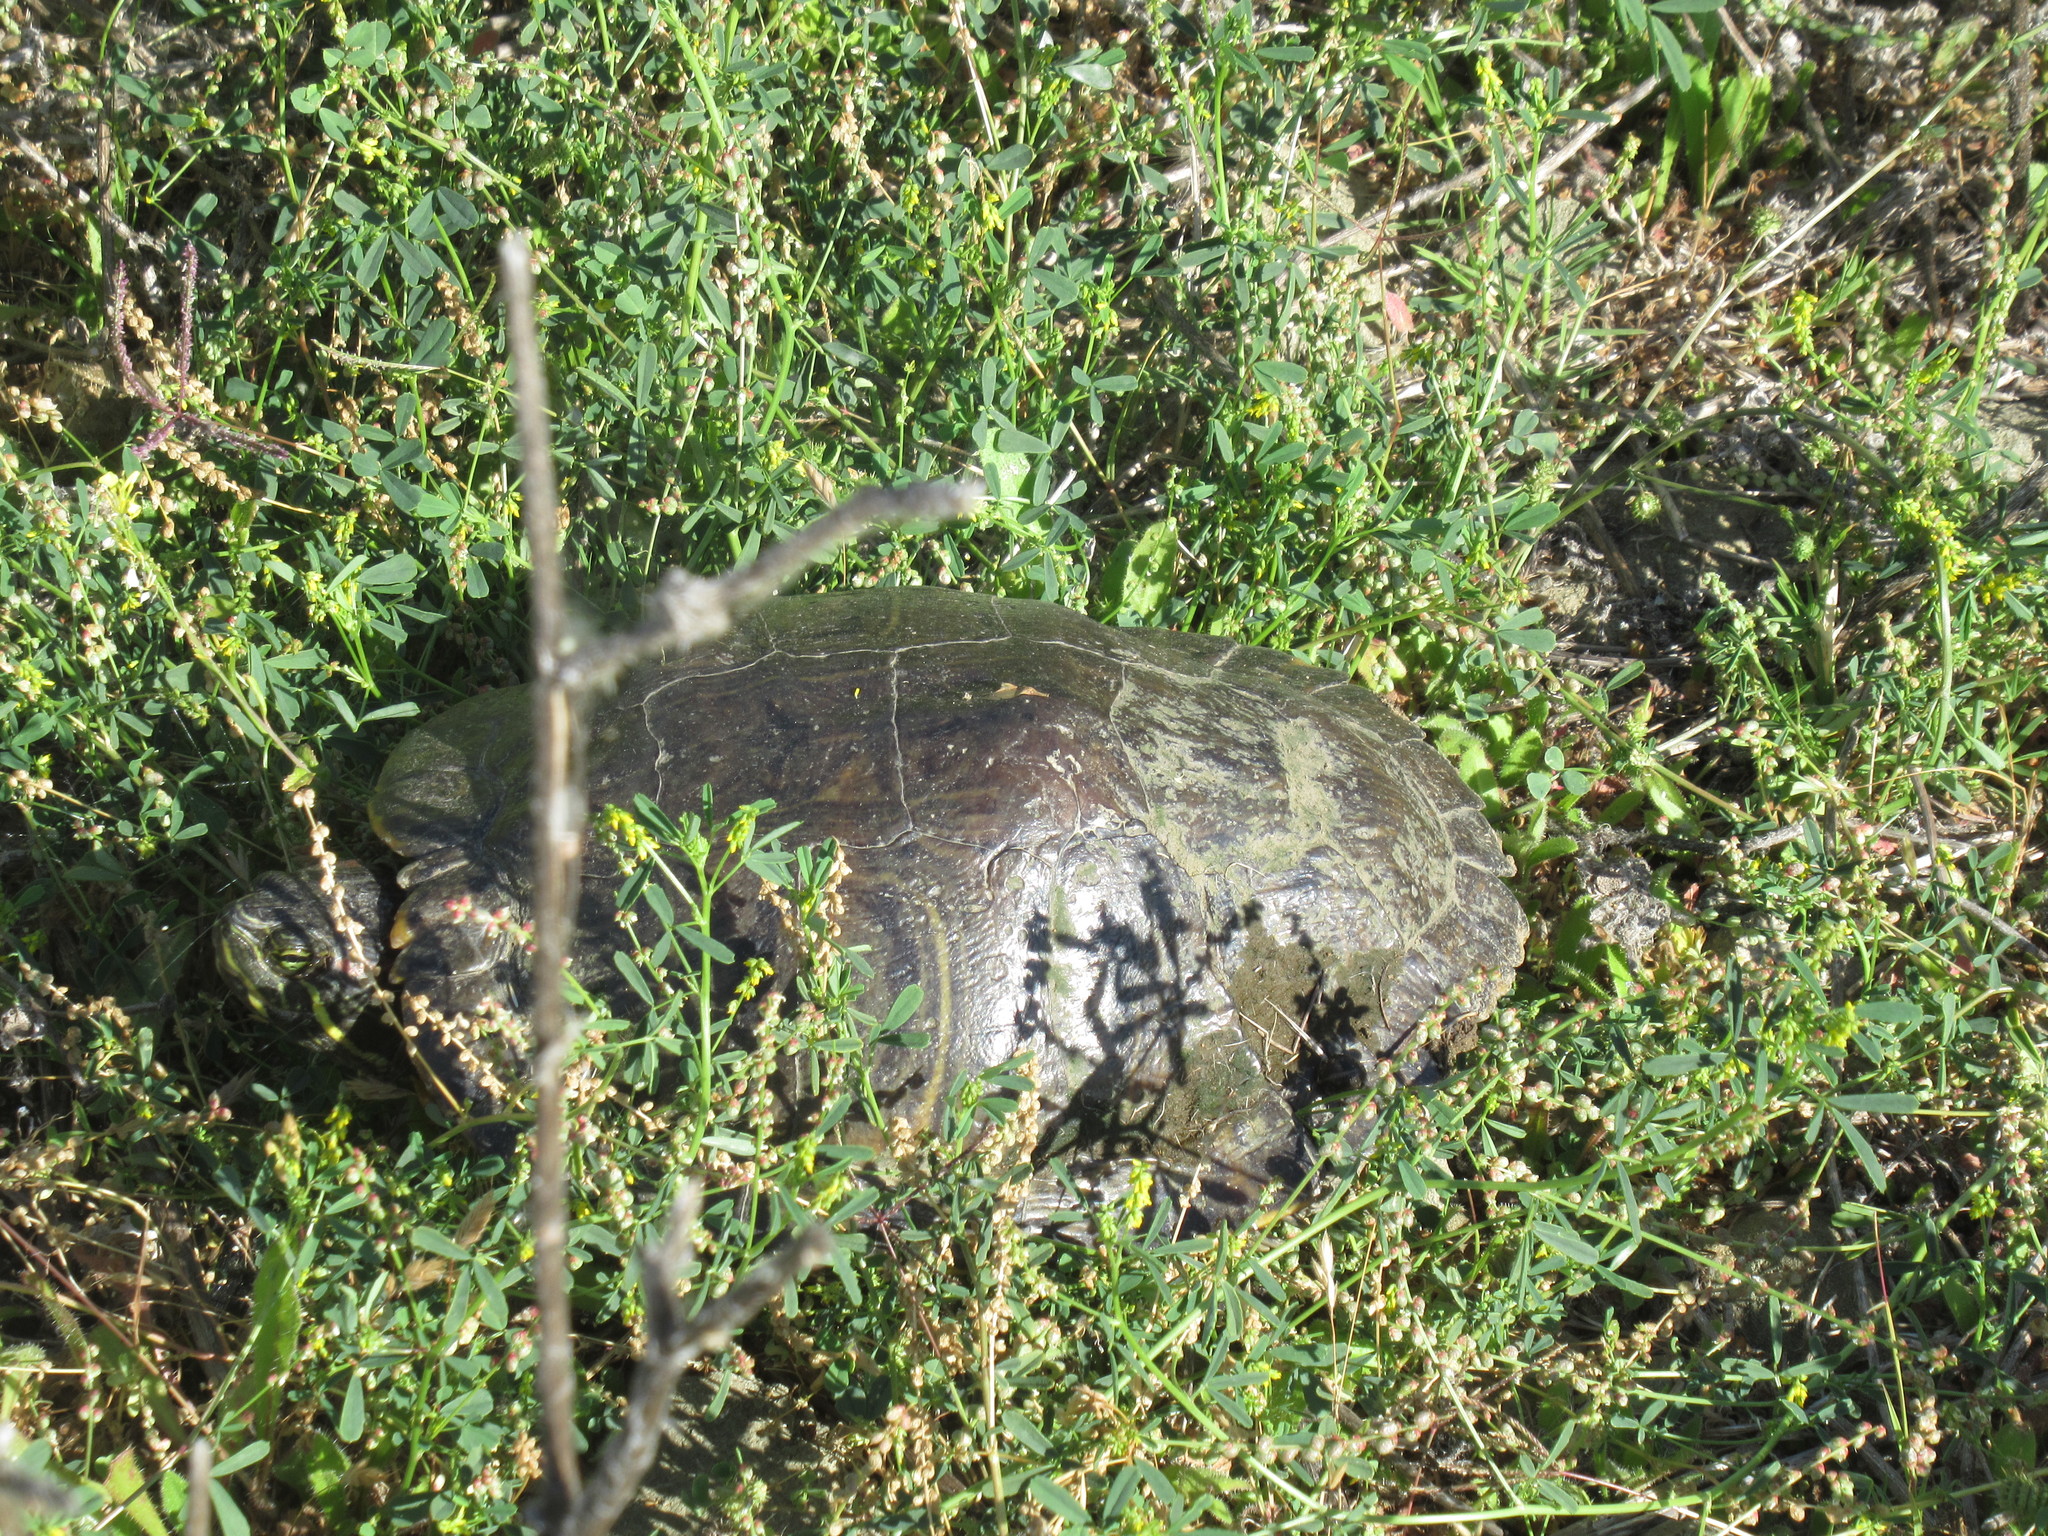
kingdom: Animalia
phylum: Chordata
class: Testudines
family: Emydidae
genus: Trachemys
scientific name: Trachemys scripta
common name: Slider
